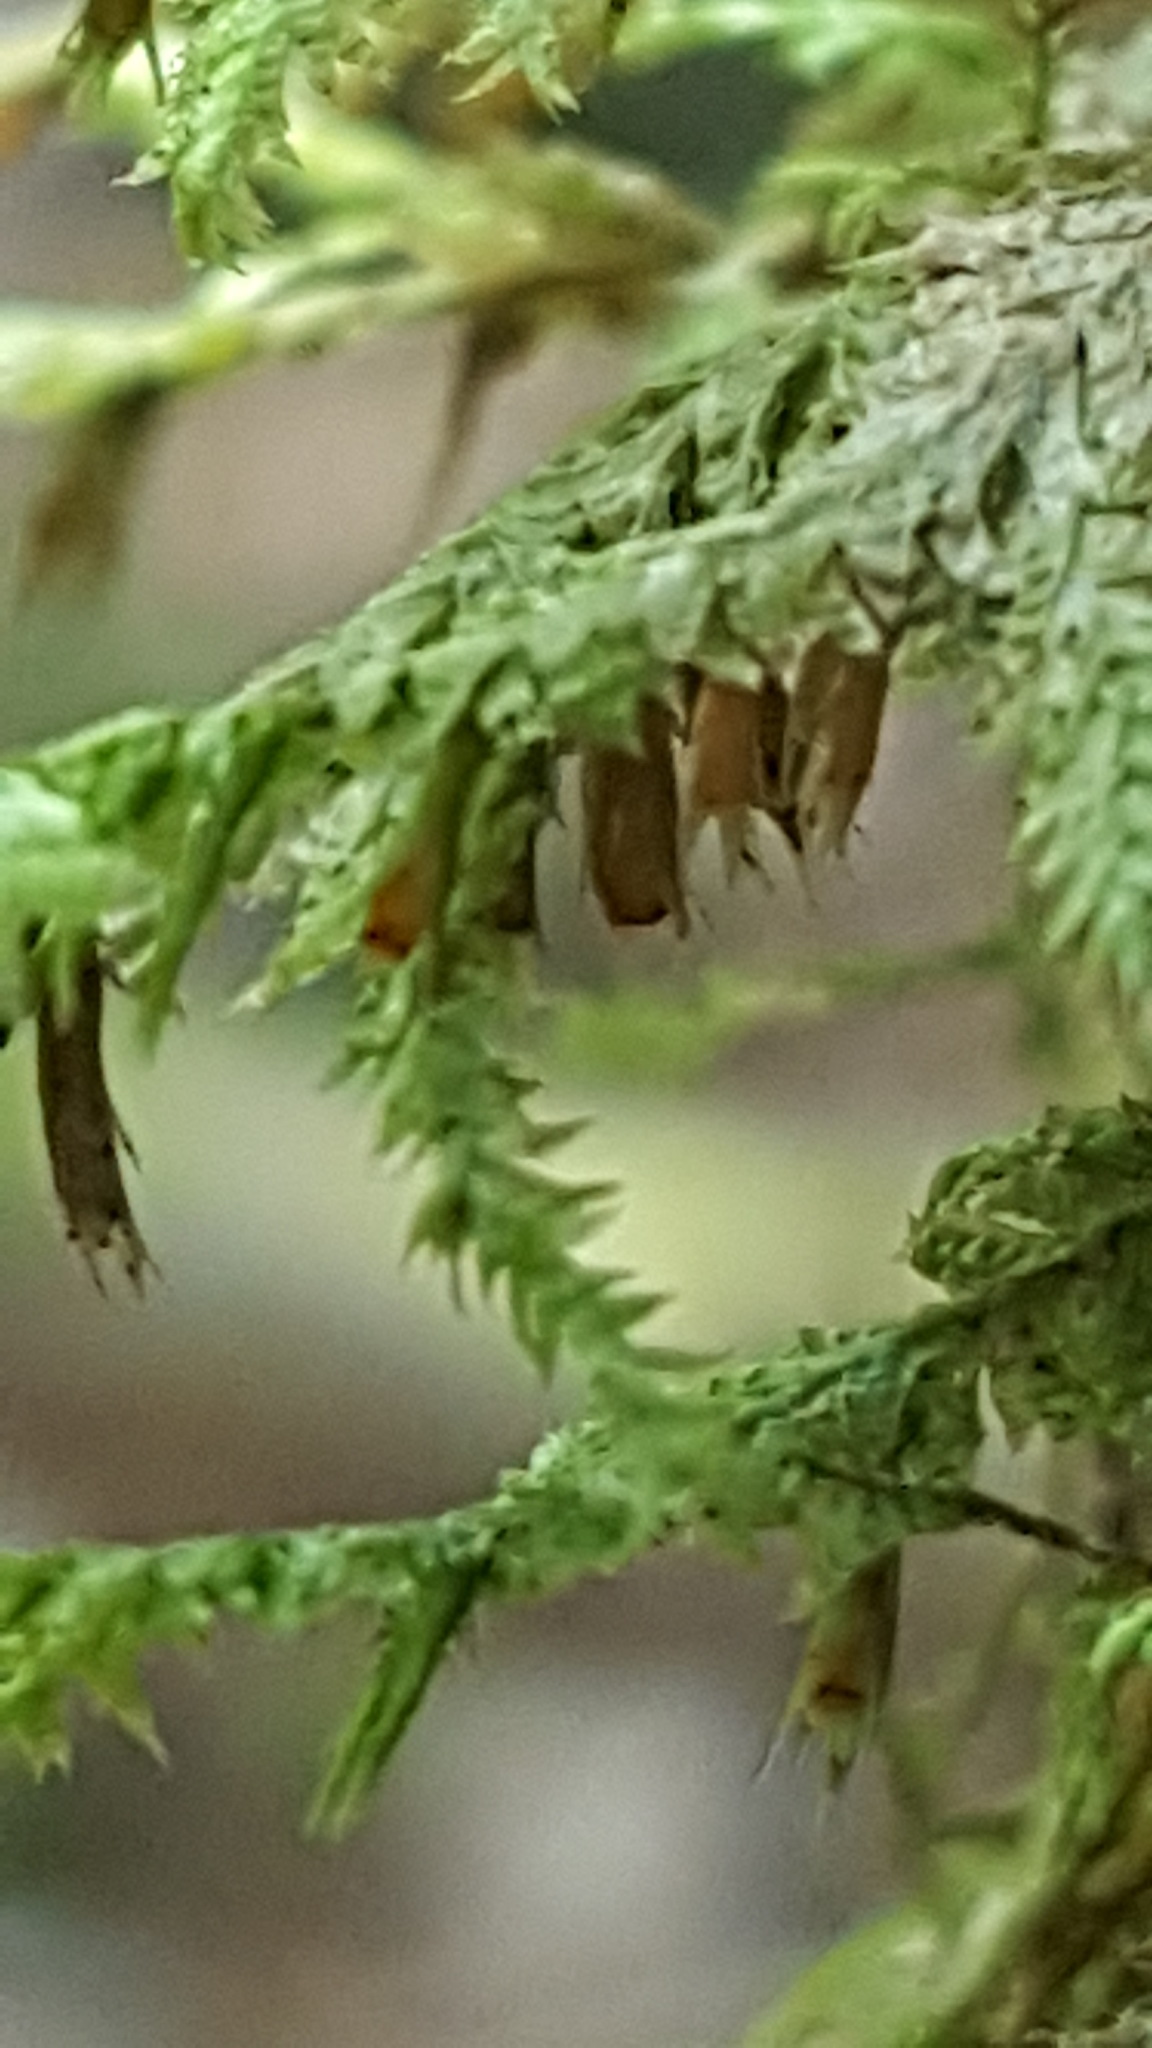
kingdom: Plantae
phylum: Bryophyta
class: Bryopsida
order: Hypnales
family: Neckeraceae
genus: Neckera
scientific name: Neckera pennata
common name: Feathery neckera
